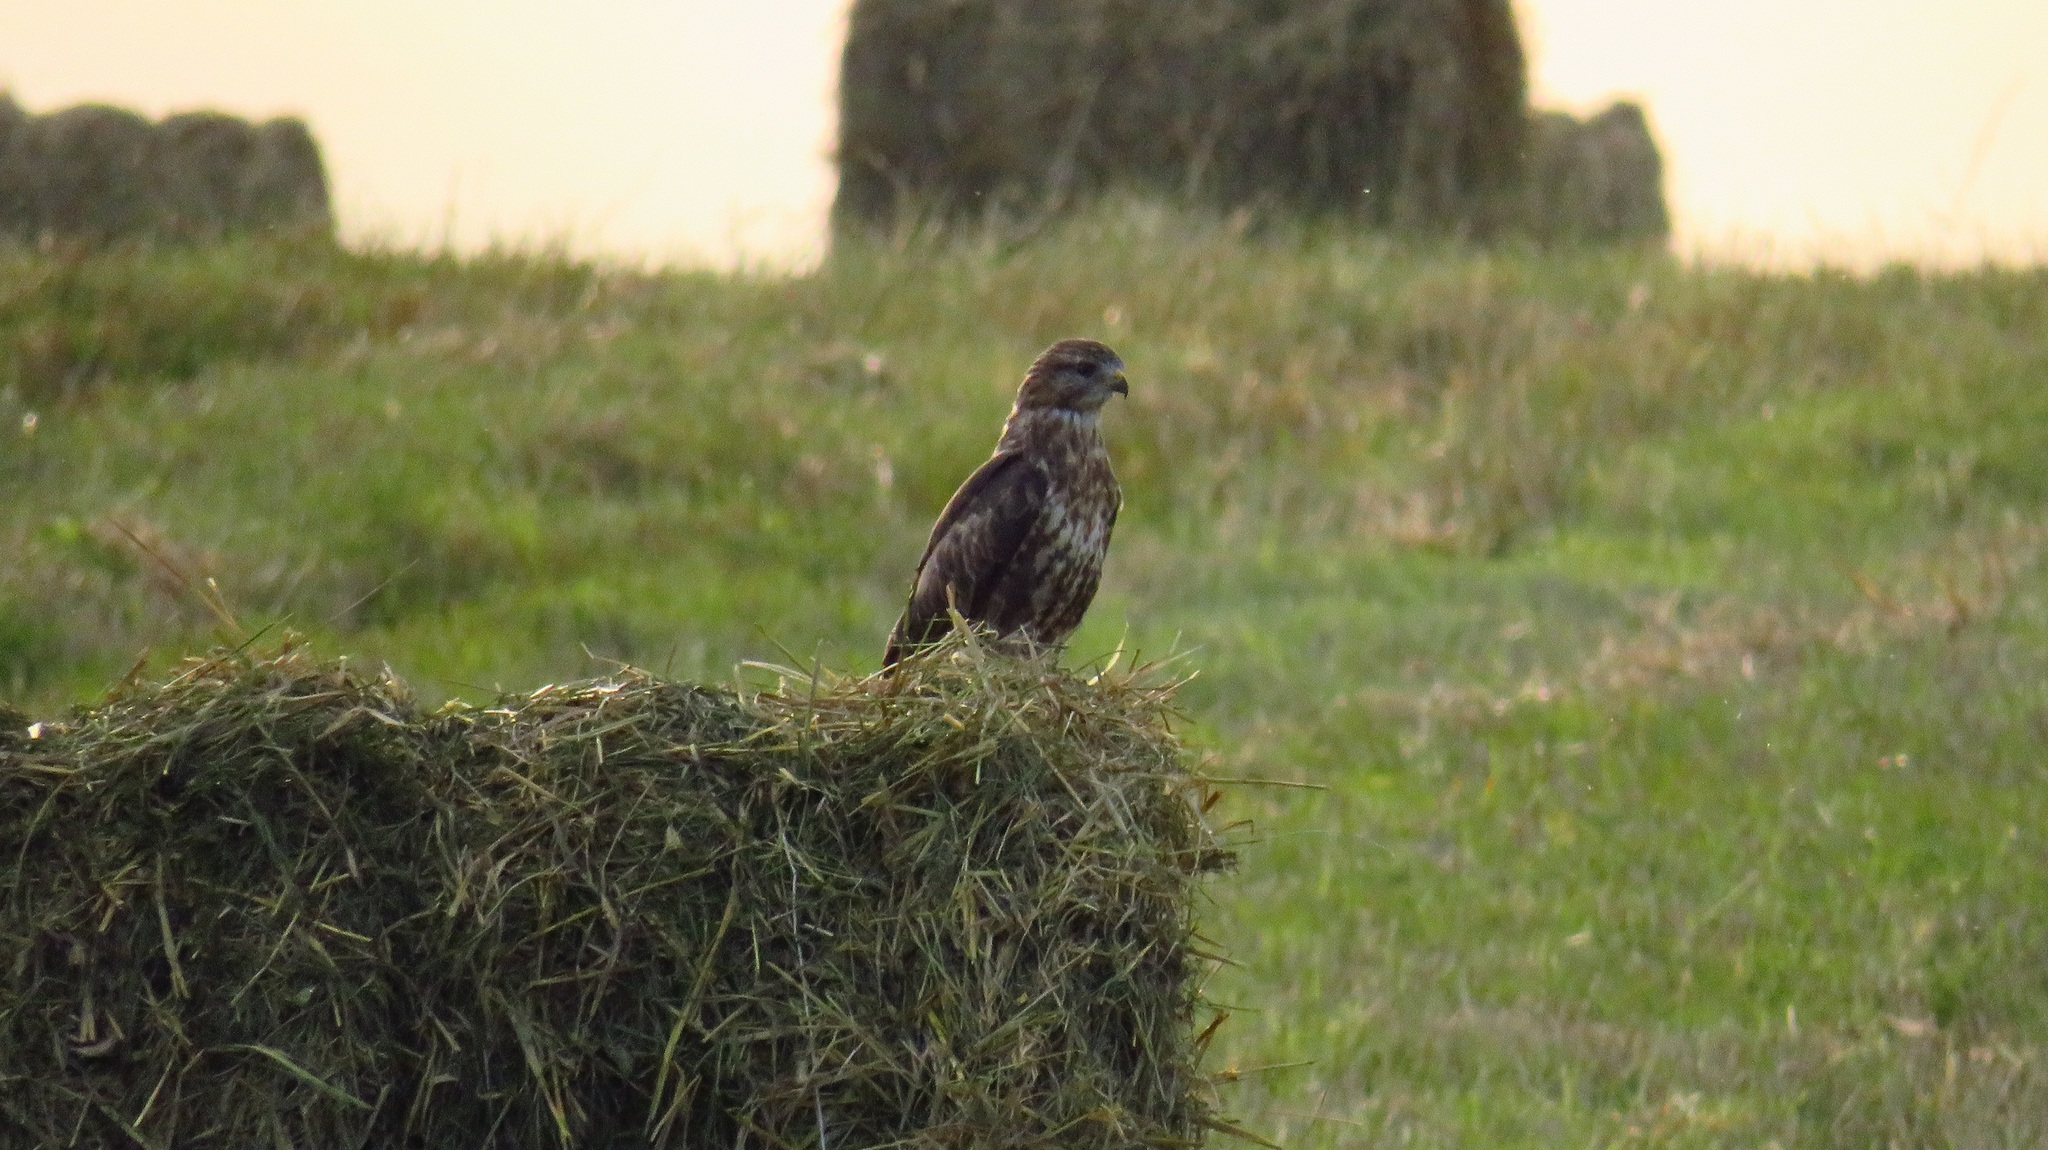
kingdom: Animalia
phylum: Chordata
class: Aves
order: Accipitriformes
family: Accipitridae
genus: Buteo
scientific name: Buteo buteo
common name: Common buzzard
